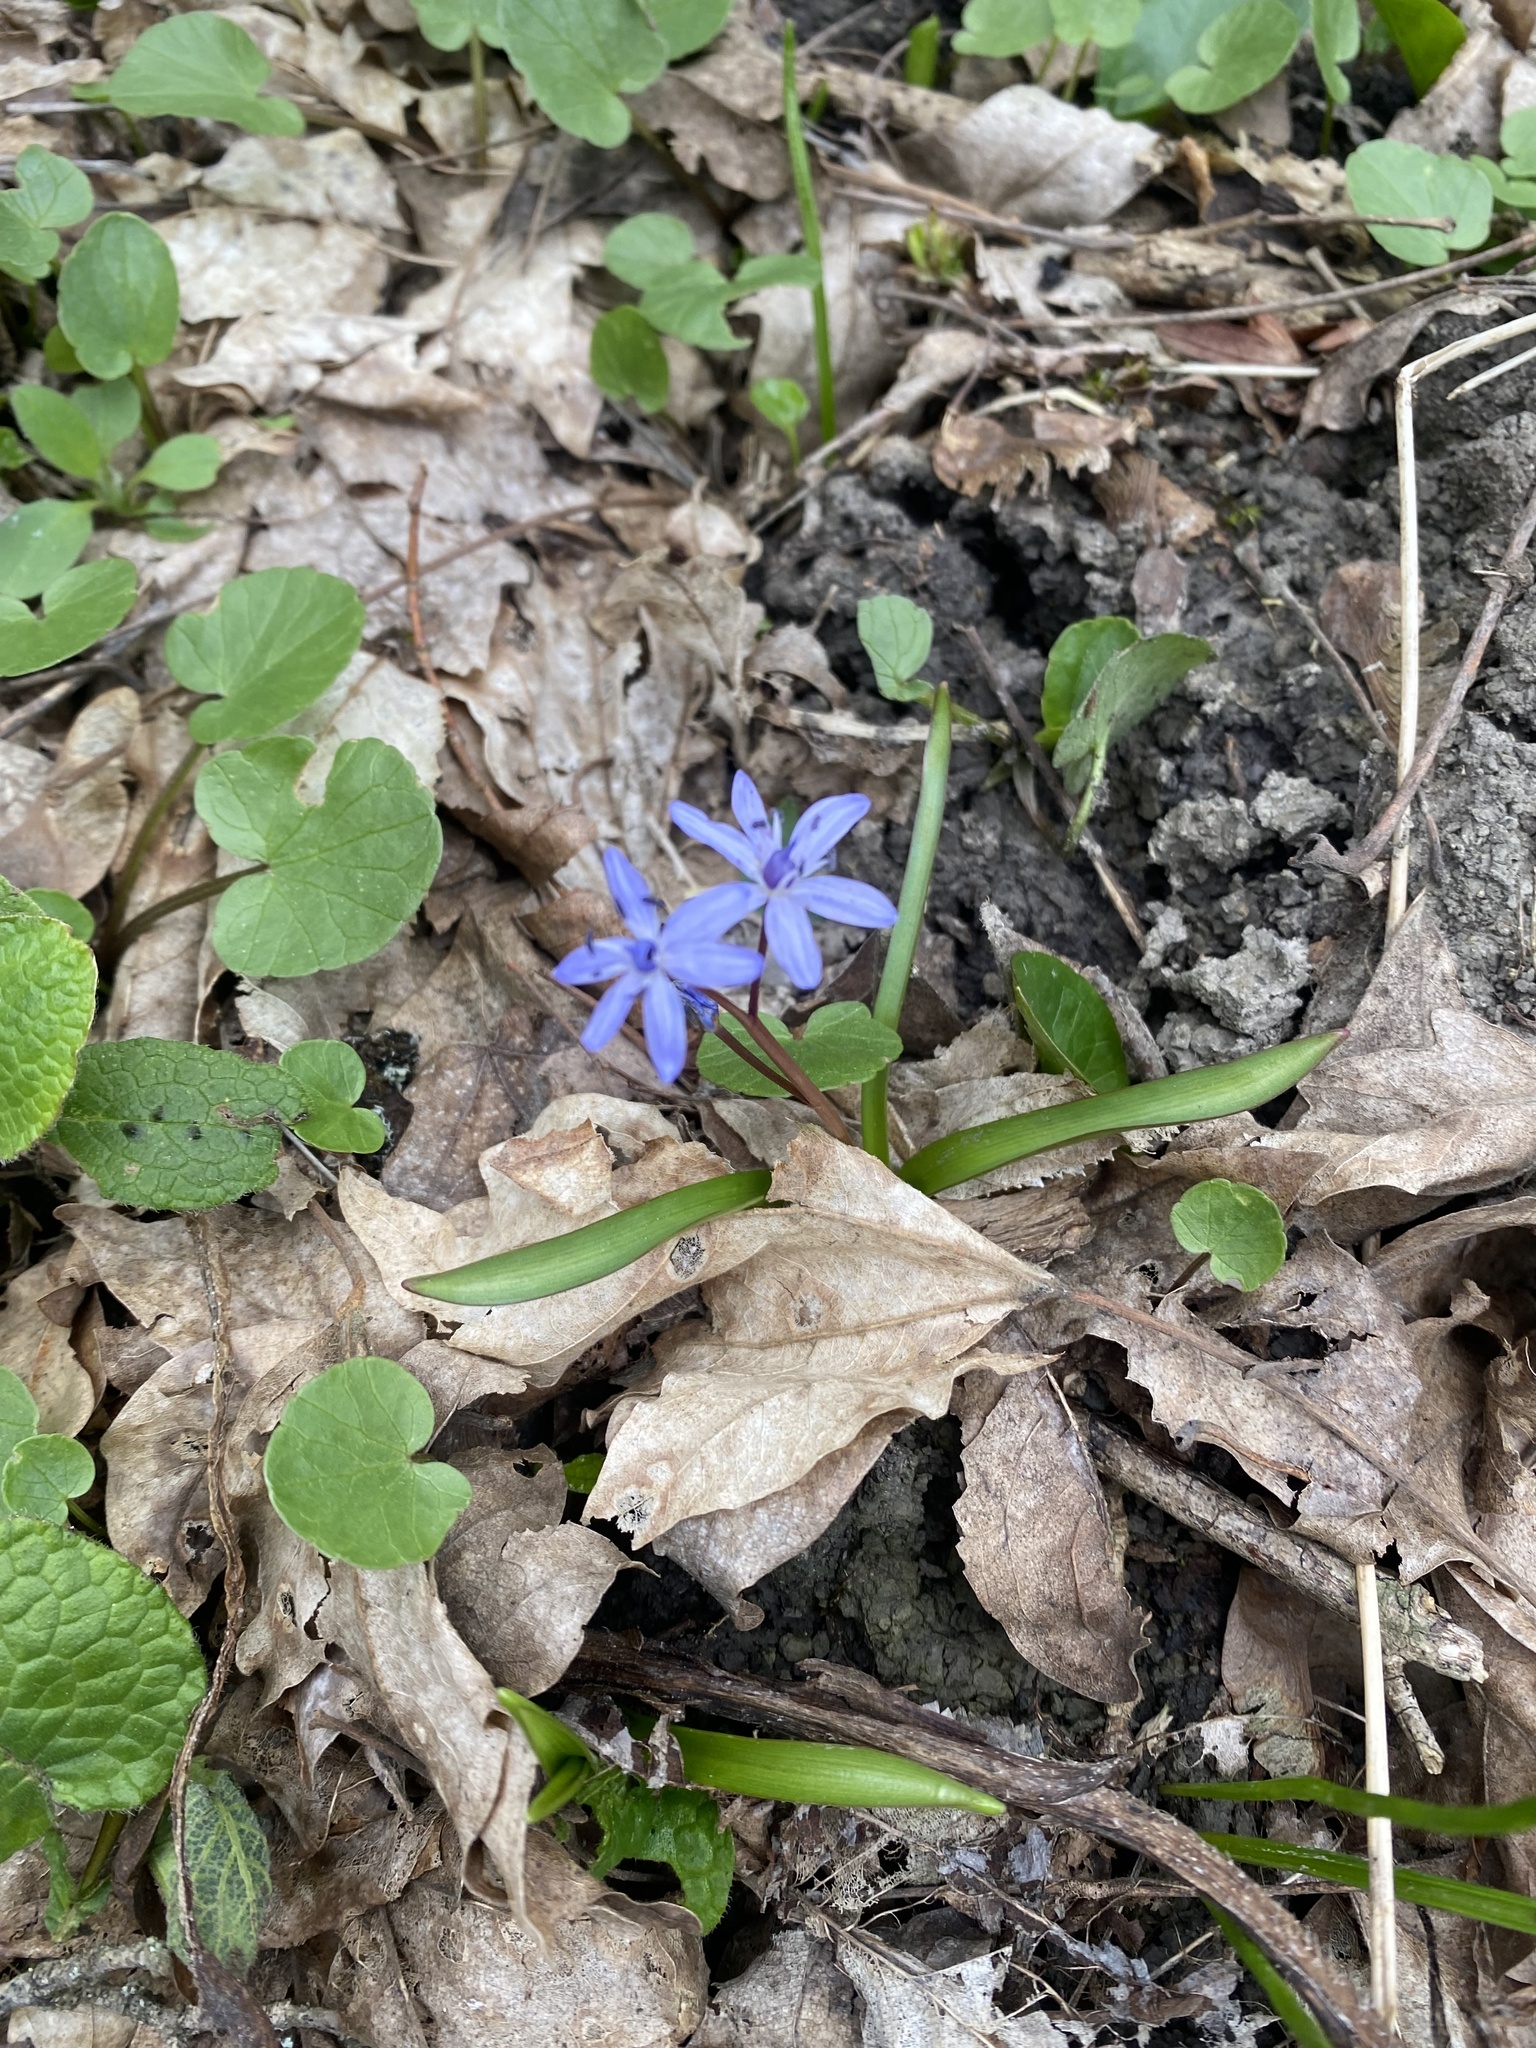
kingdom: Plantae
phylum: Tracheophyta
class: Liliopsida
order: Asparagales
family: Asparagaceae
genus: Scilla
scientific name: Scilla bifolia
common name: Alpine squill
